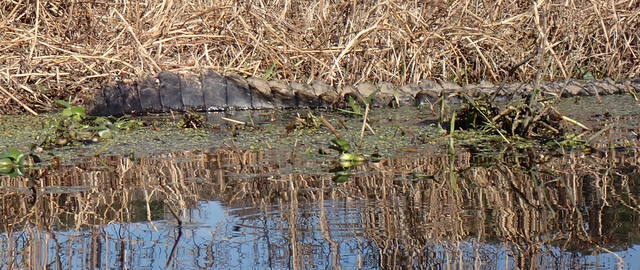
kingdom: Animalia
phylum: Chordata
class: Crocodylia
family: Alligatoridae
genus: Alligator
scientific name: Alligator mississippiensis
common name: American alligator
